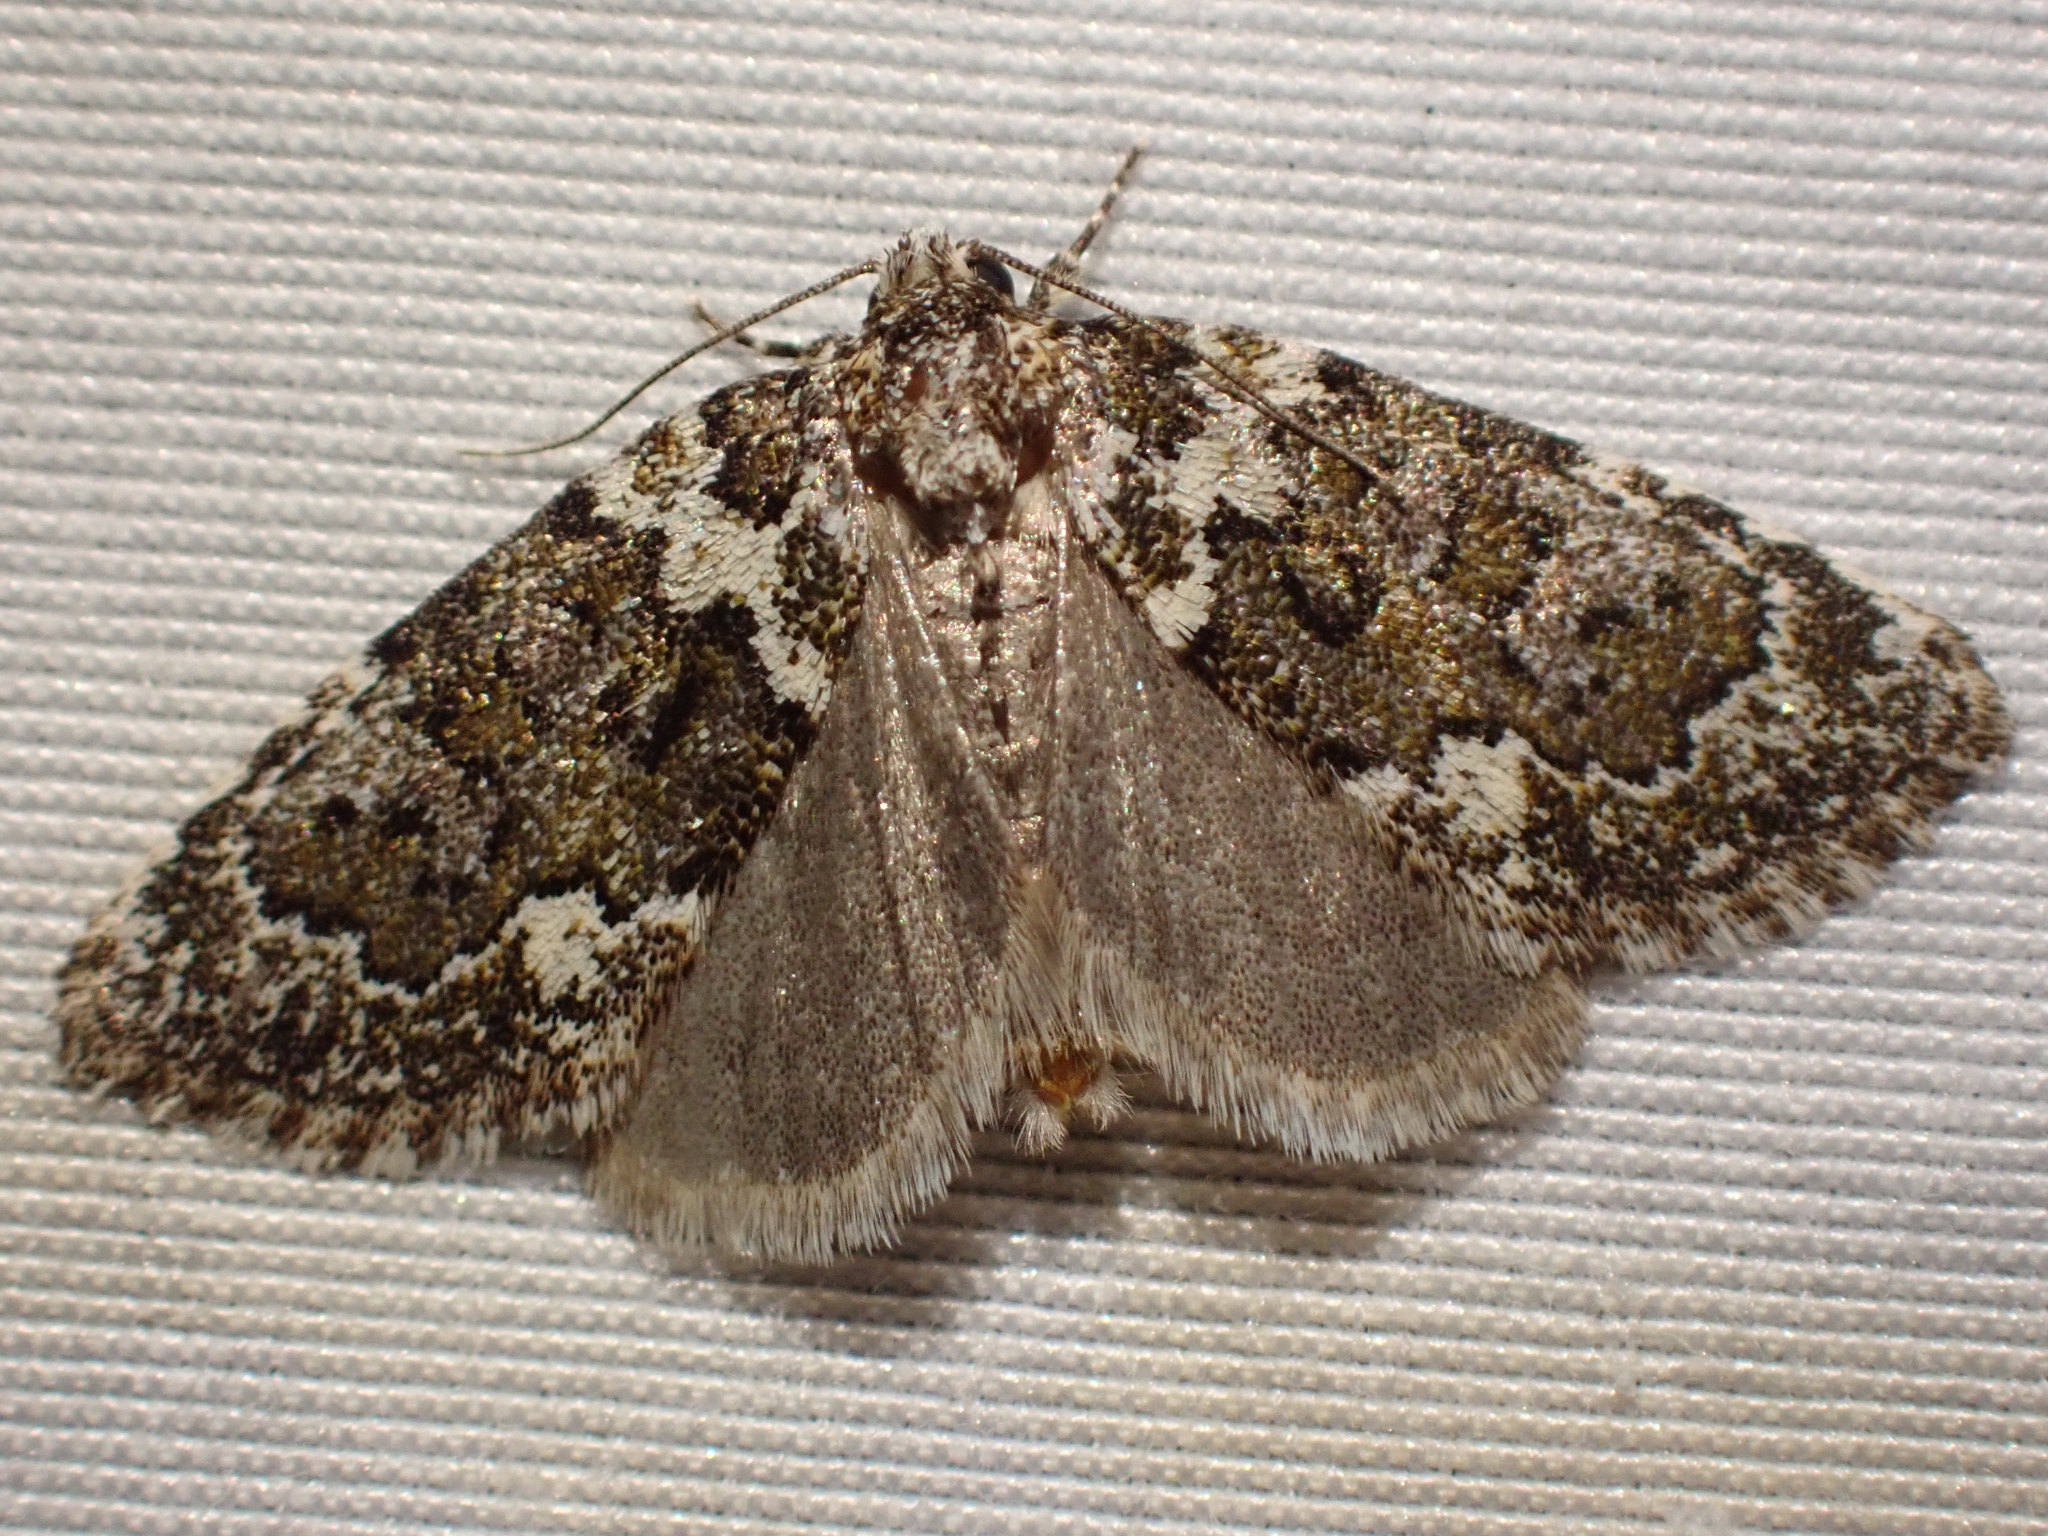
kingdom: Animalia
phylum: Arthropoda
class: Insecta
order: Lepidoptera
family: Noctuidae
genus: Cryphia
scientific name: Cryphia cuerva
